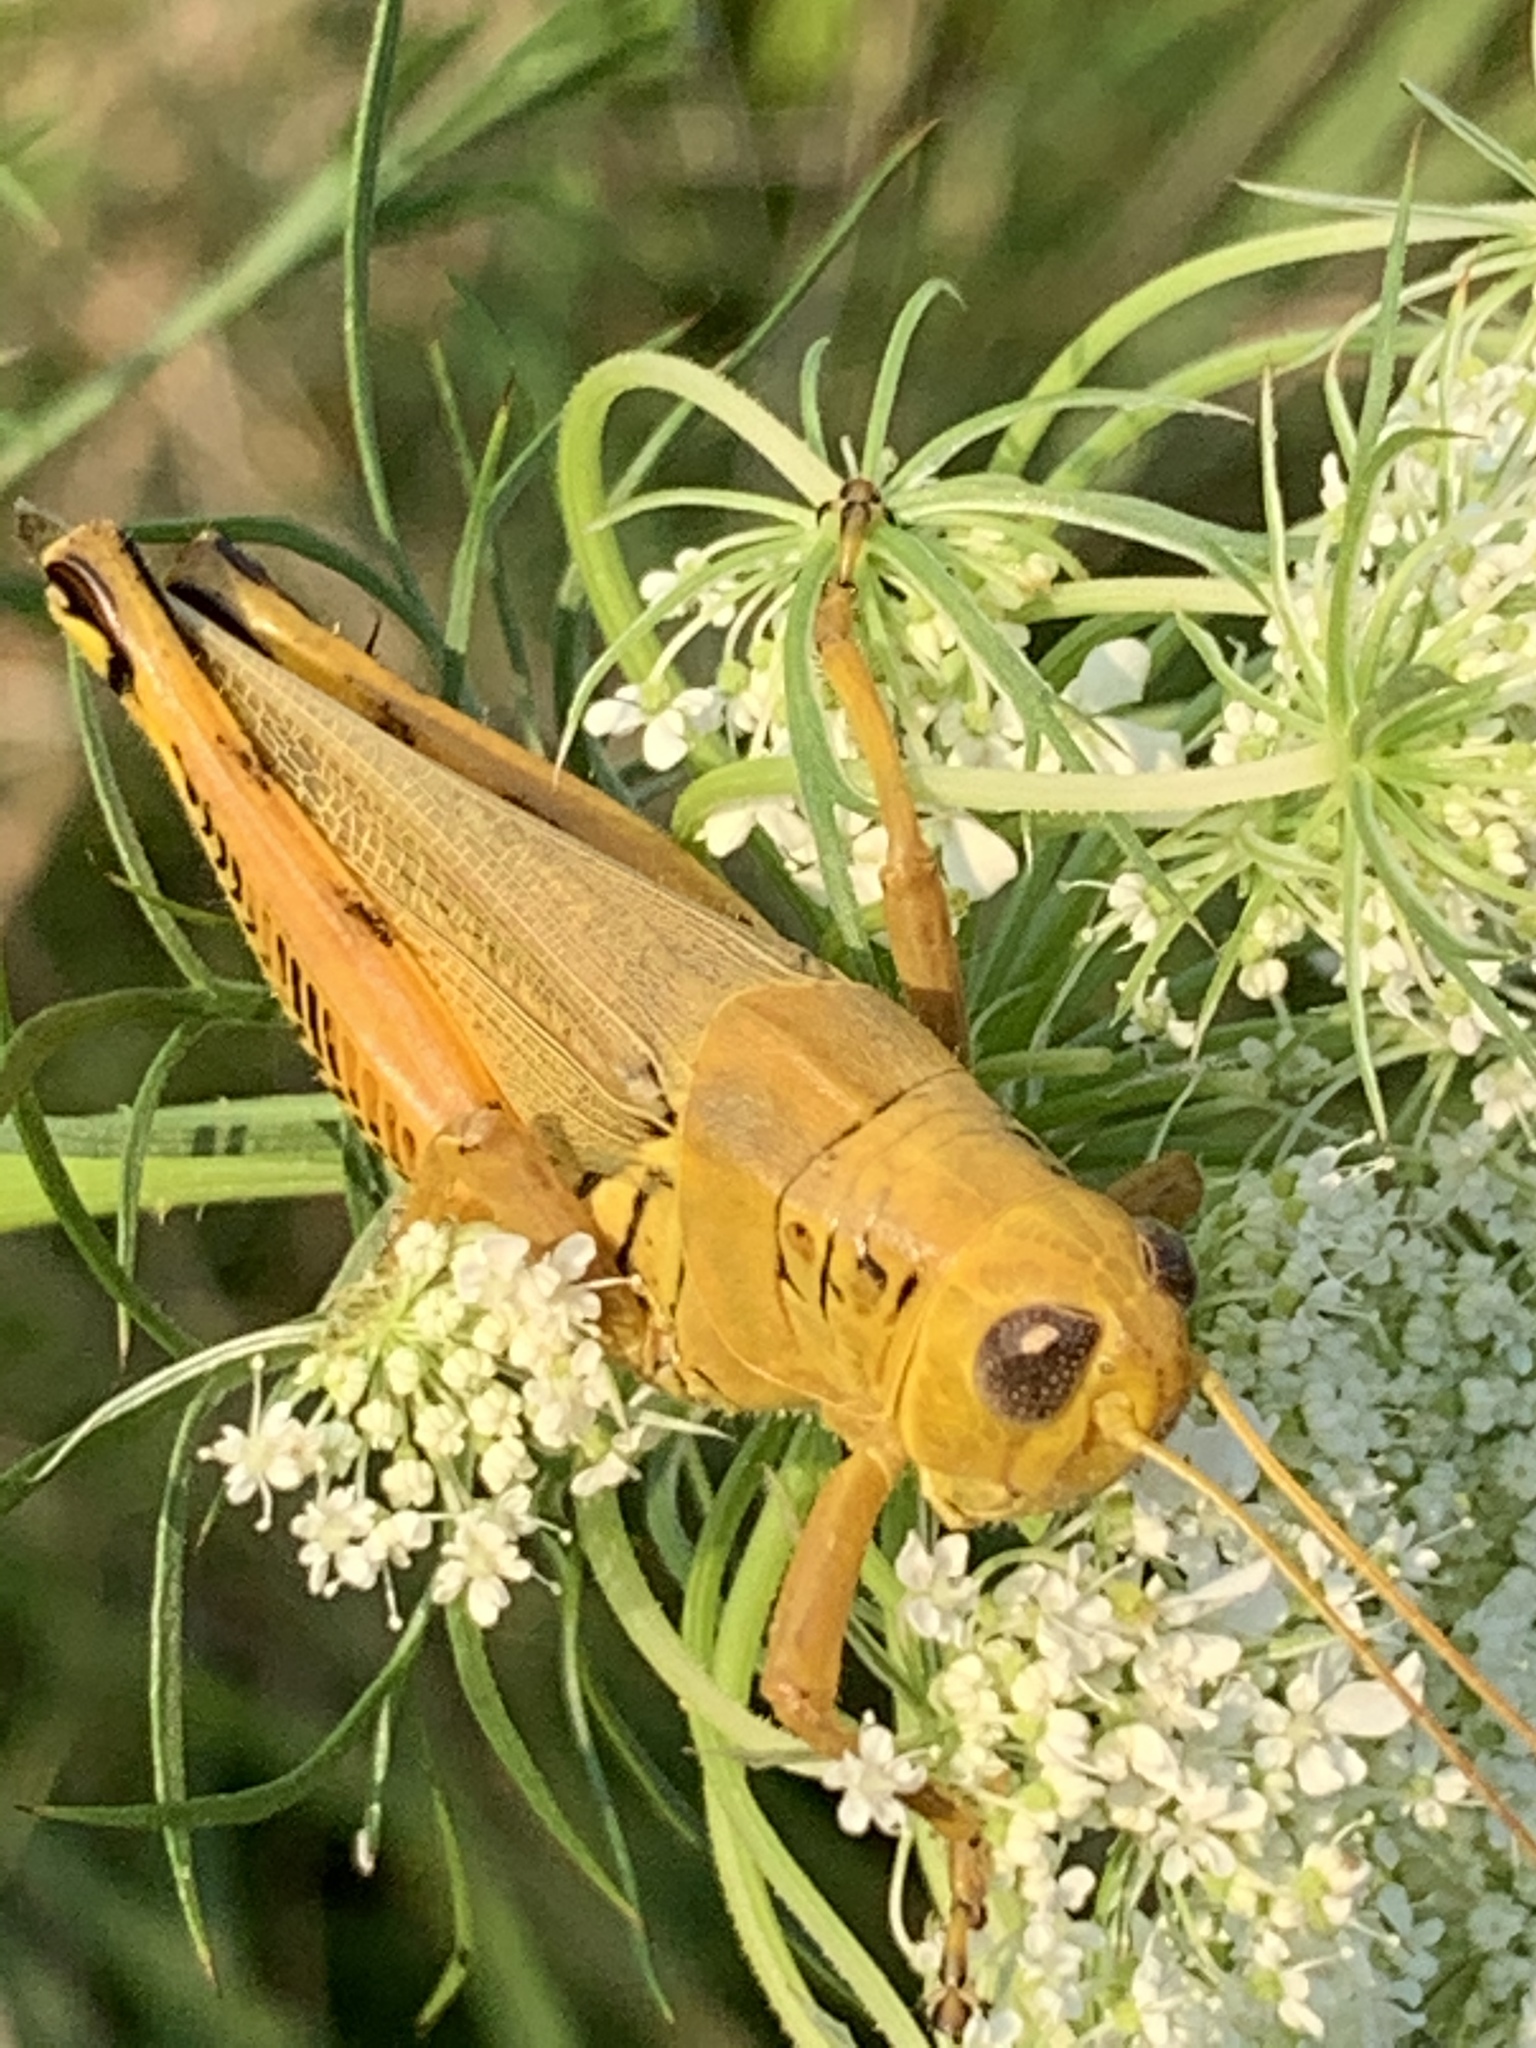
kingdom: Animalia
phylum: Arthropoda
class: Insecta
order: Orthoptera
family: Acrididae
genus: Melanoplus
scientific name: Melanoplus differentialis
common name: Differential grasshopper
